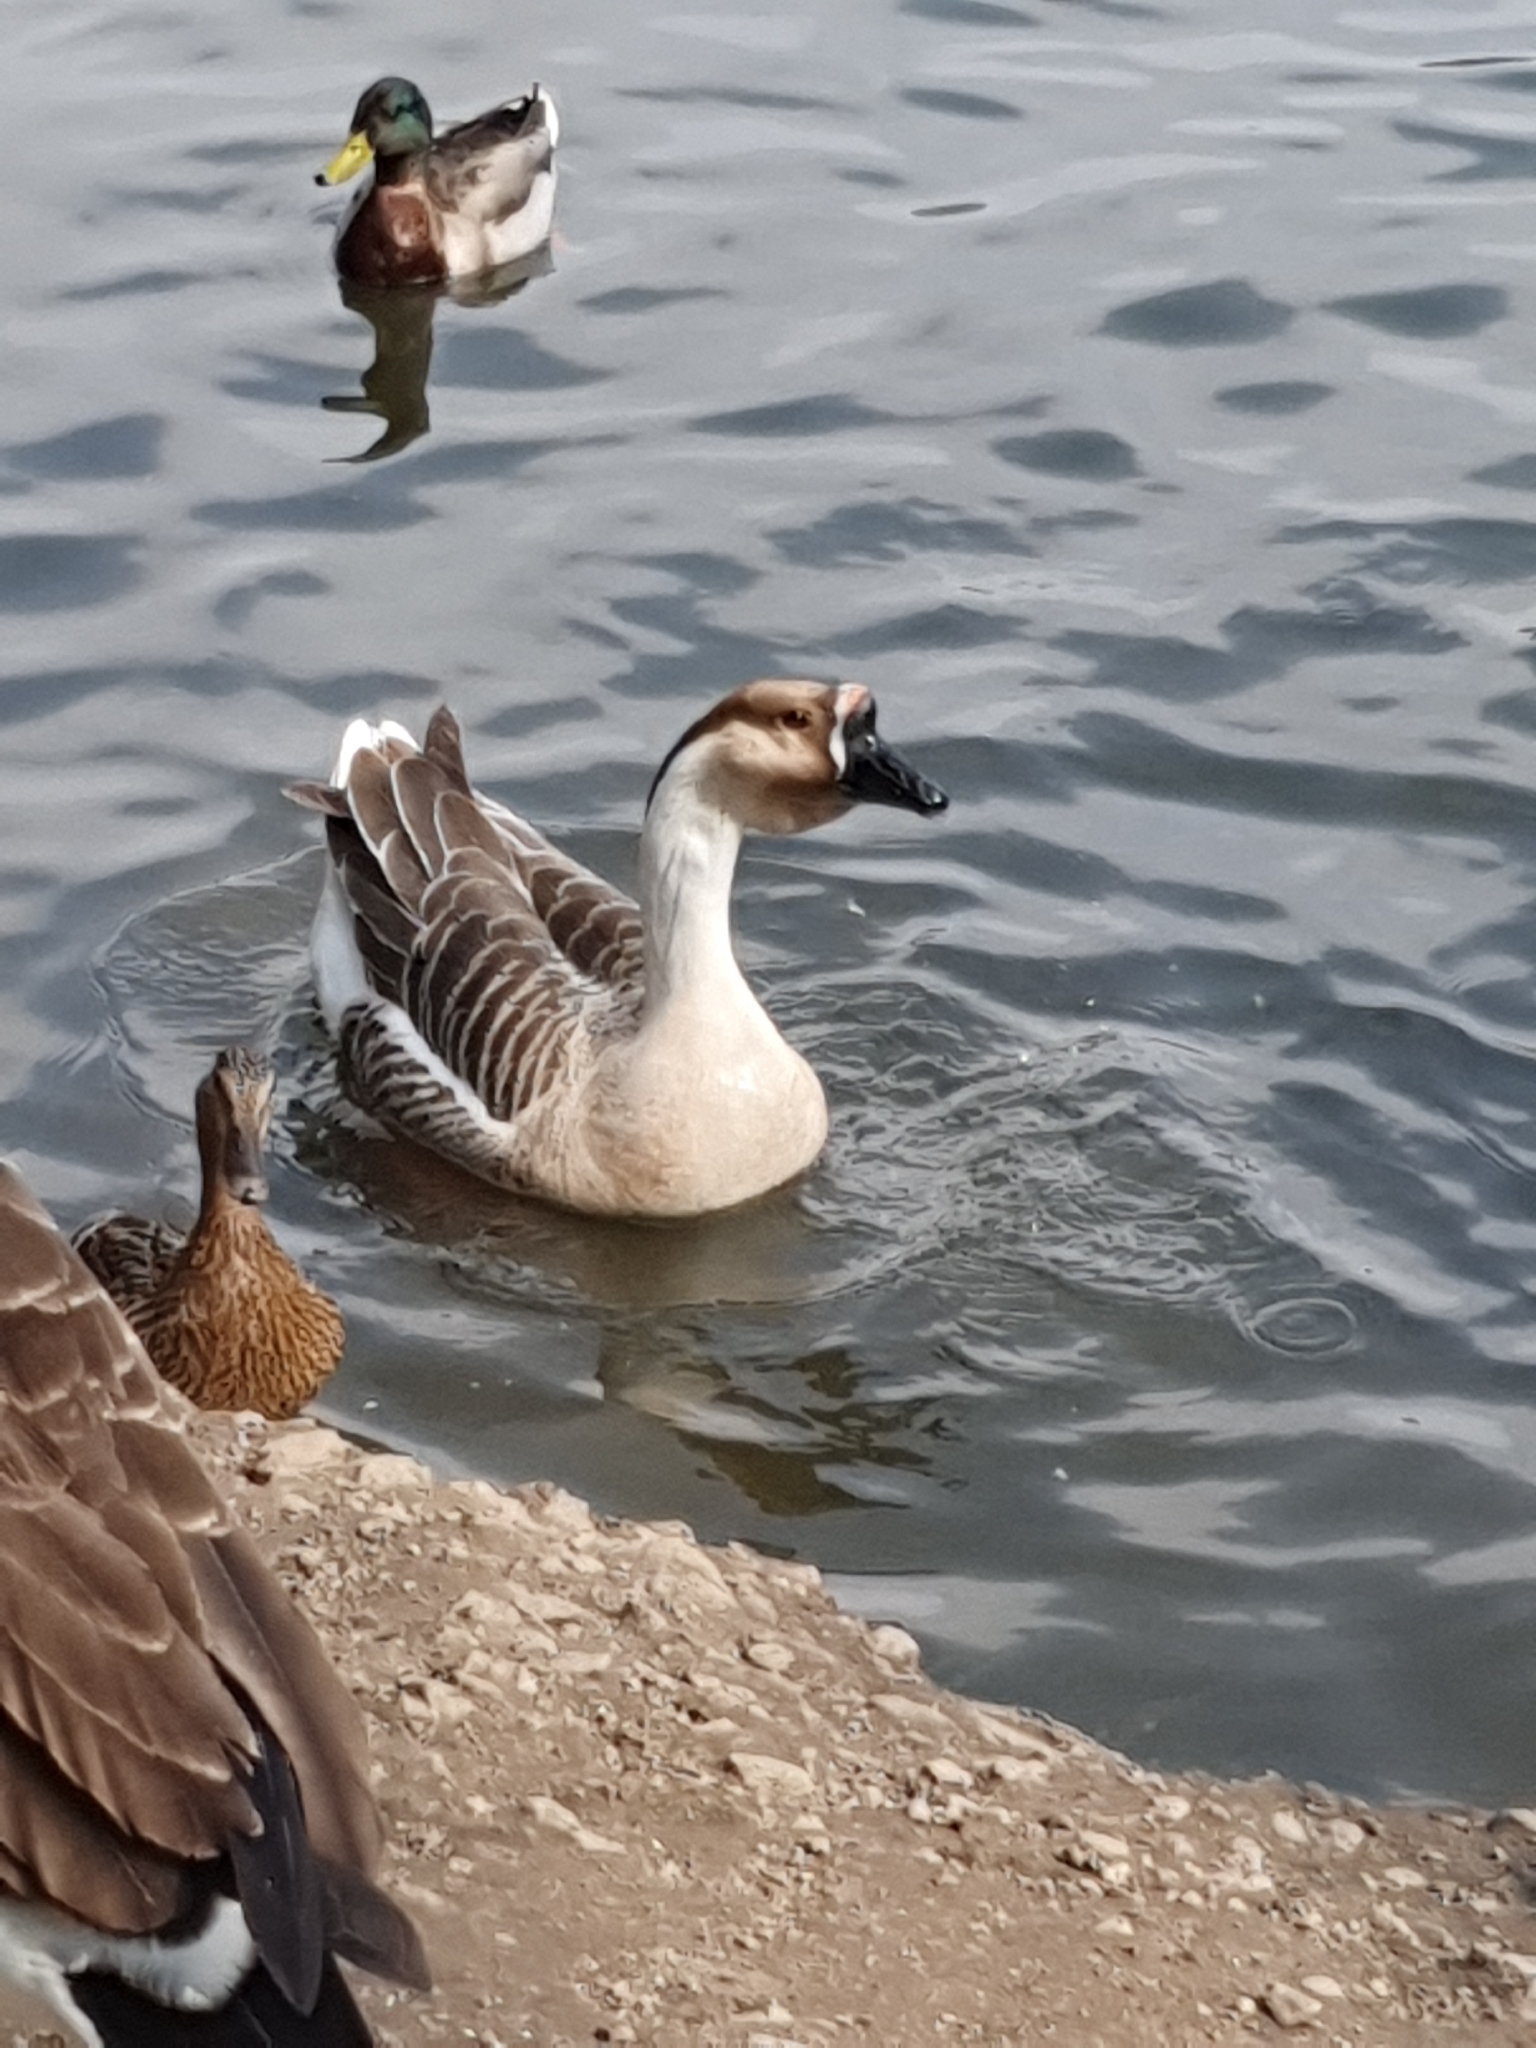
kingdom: Animalia
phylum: Chordata
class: Aves
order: Anseriformes
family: Anatidae
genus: Anser
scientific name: Anser cygnoides
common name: Swan goose
